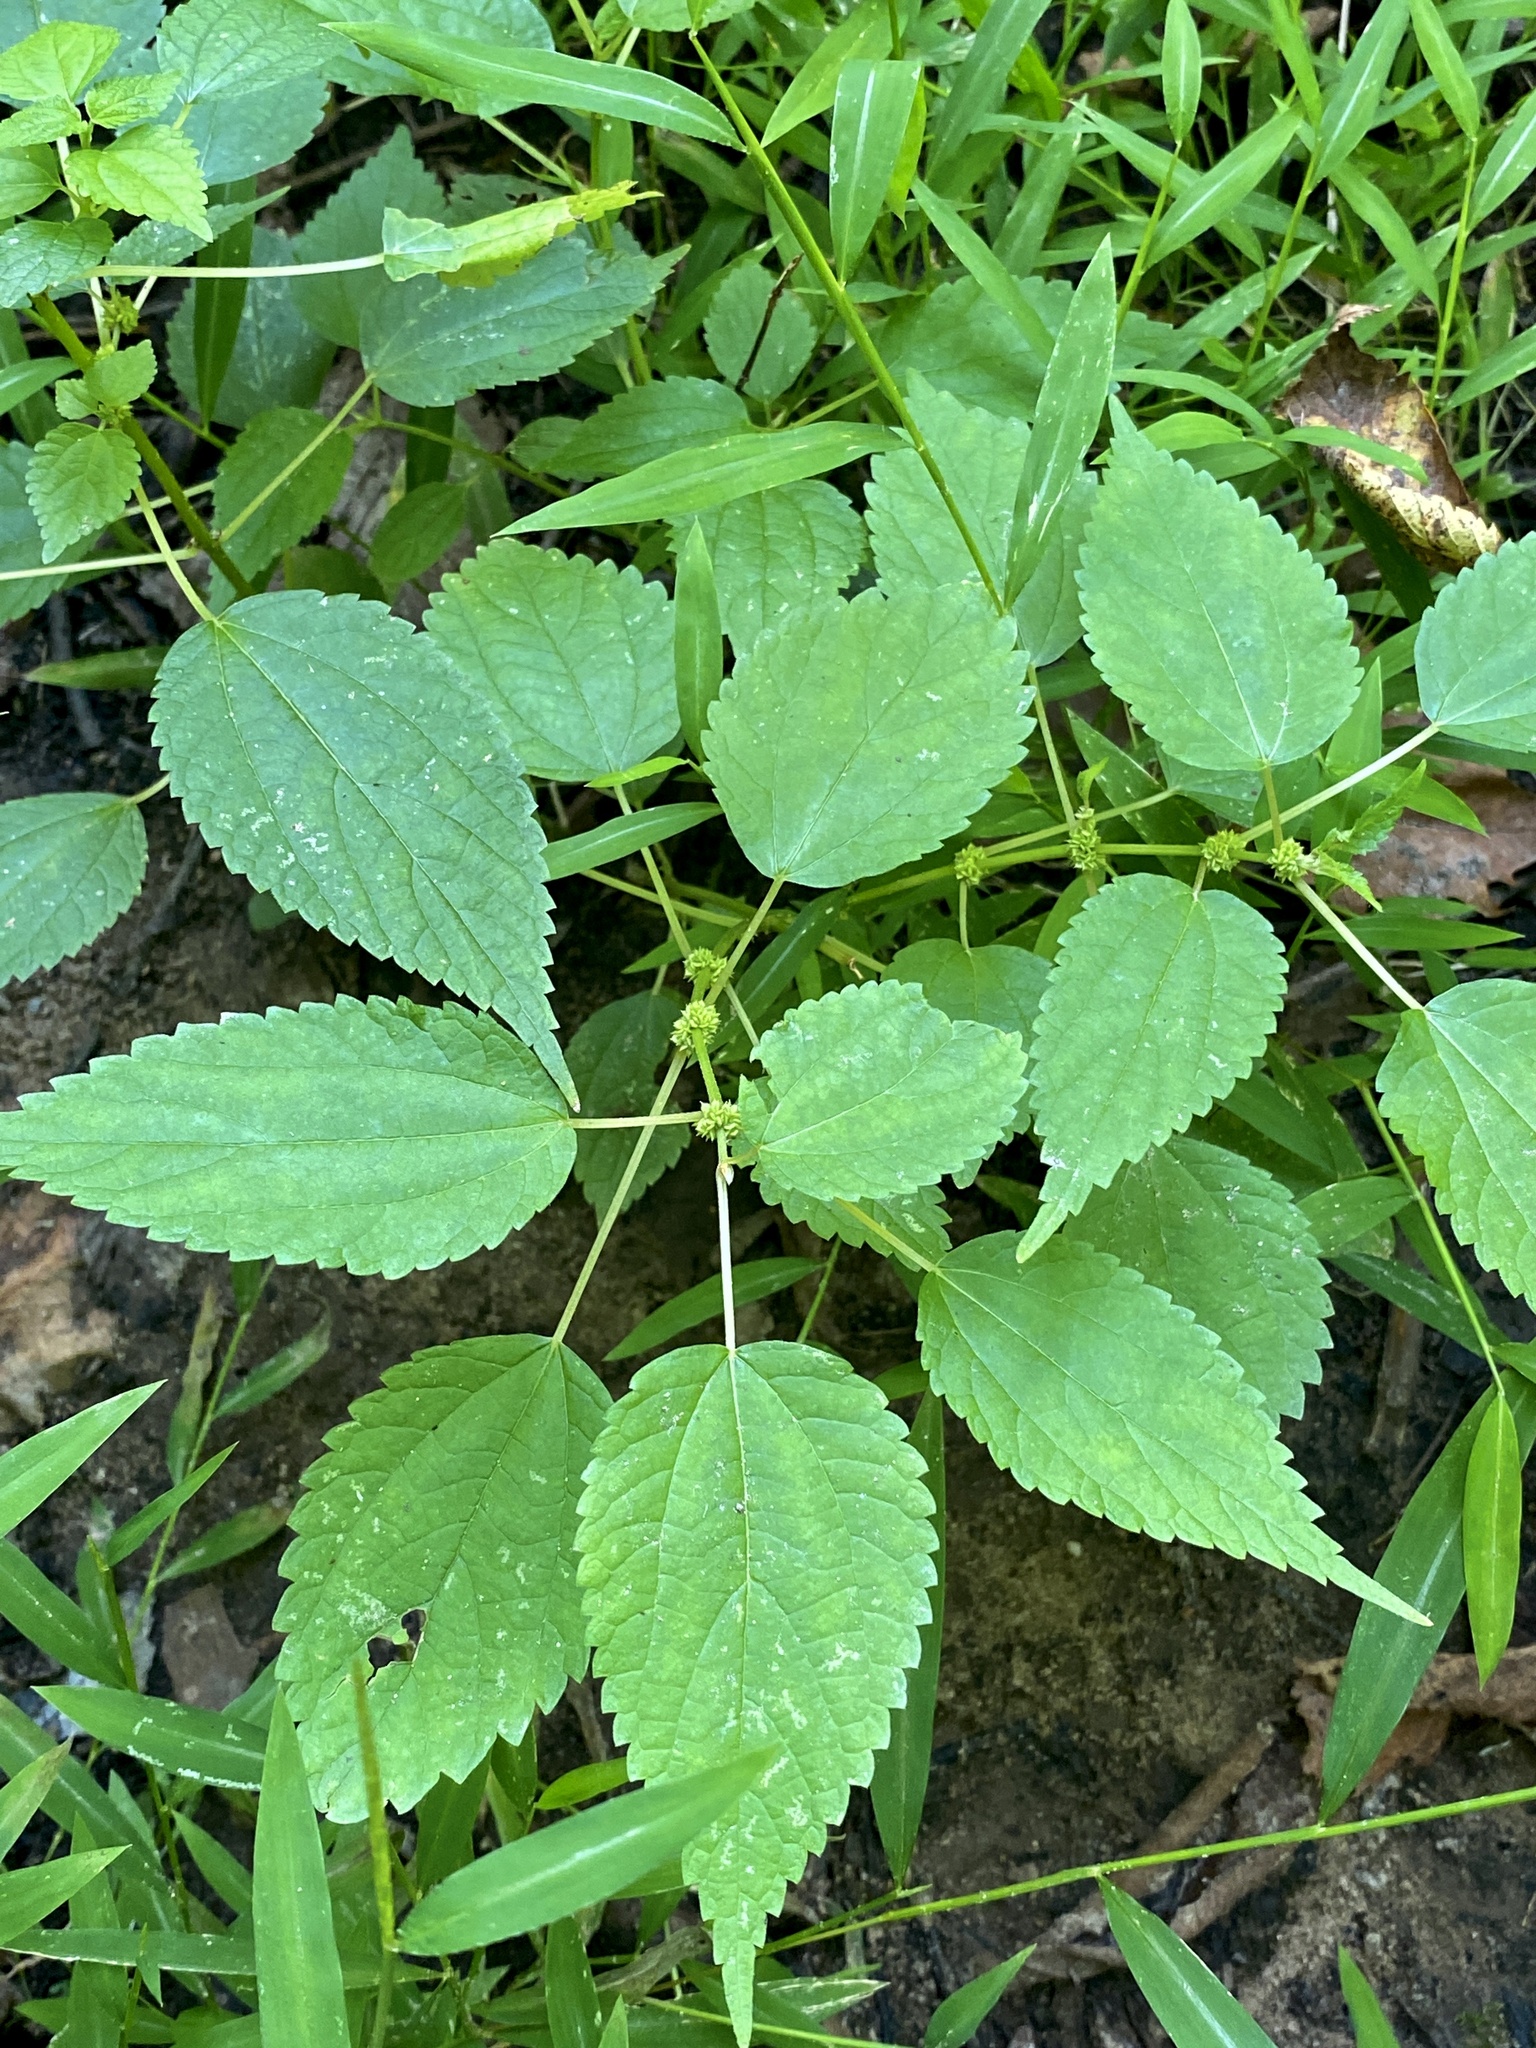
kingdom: Plantae
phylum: Tracheophyta
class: Magnoliopsida
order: Rosales
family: Urticaceae
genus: Boehmeria
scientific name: Boehmeria cylindrica
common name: Bog-hemp
